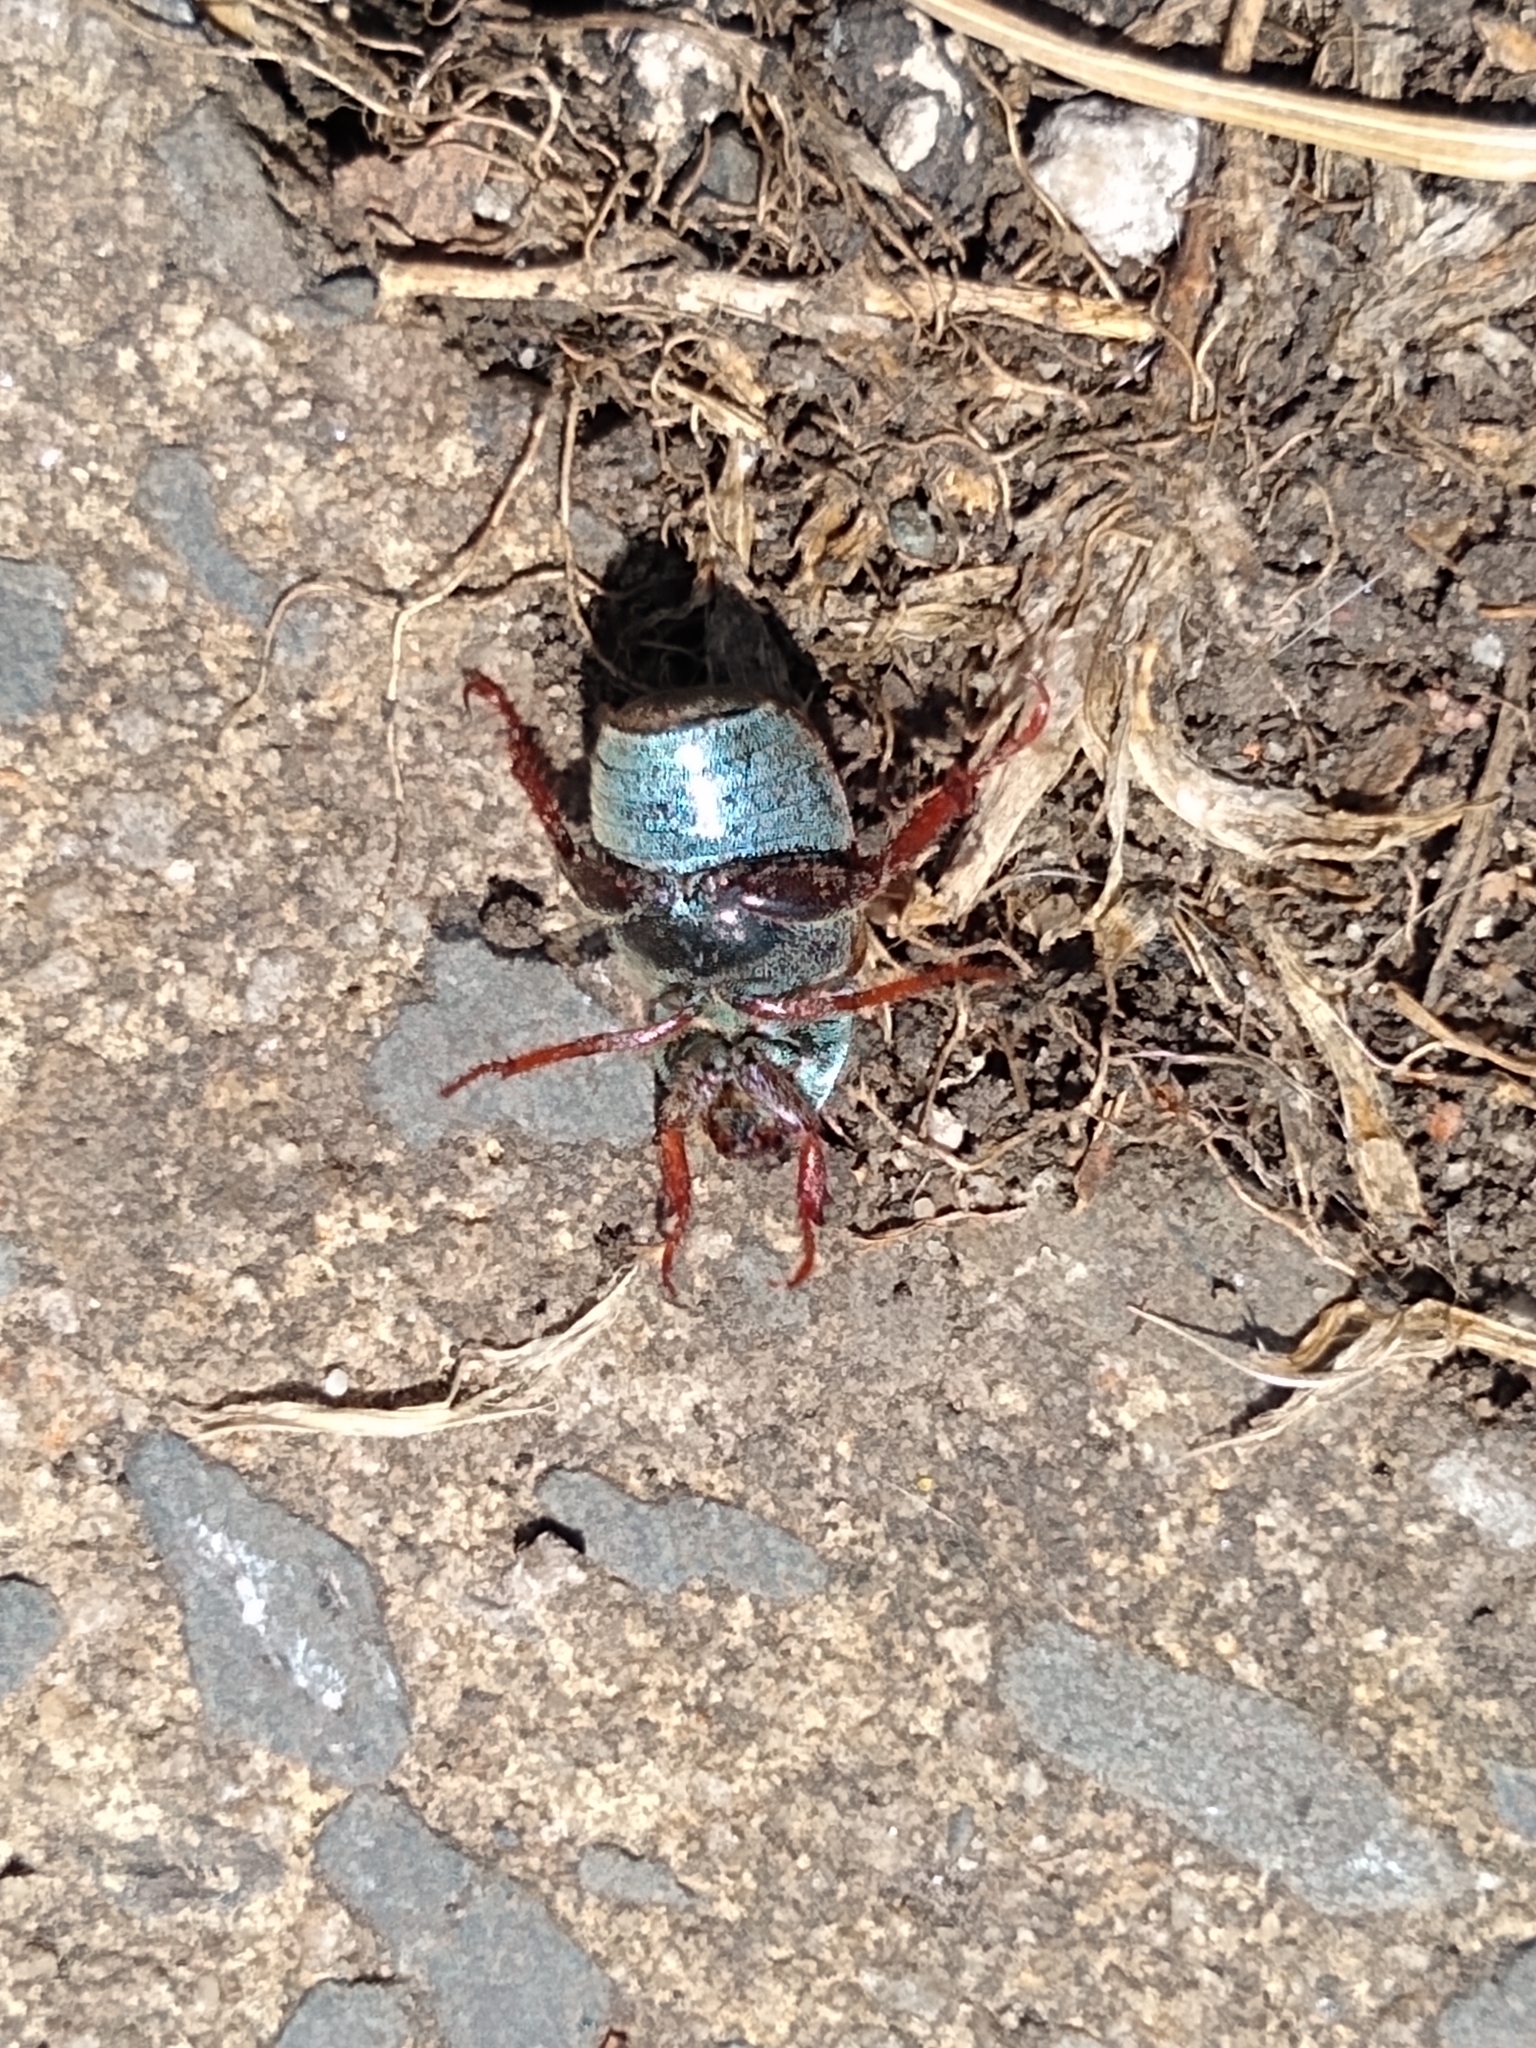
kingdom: Animalia
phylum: Arthropoda
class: Insecta
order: Coleoptera
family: Scarabaeidae
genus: Hoplia
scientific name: Hoplia philanthus
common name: Welsh chafer
